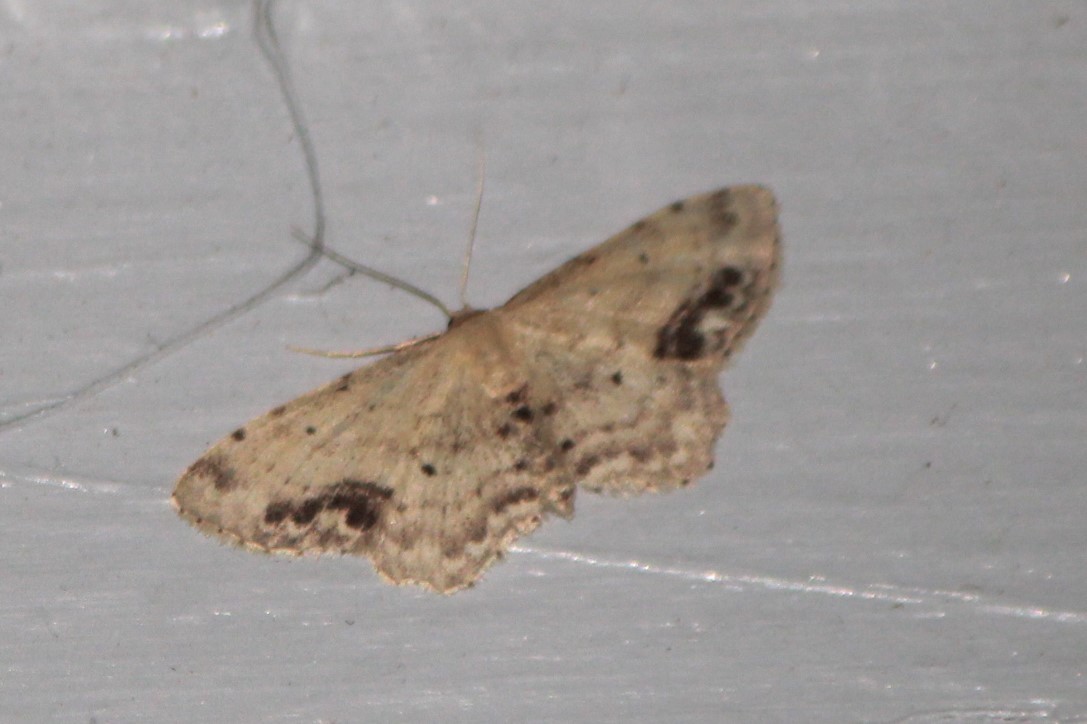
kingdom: Animalia
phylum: Arthropoda
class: Insecta
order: Lepidoptera
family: Geometridae
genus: Idaea
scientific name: Idaea dimidiata
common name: Single-dotted wave
